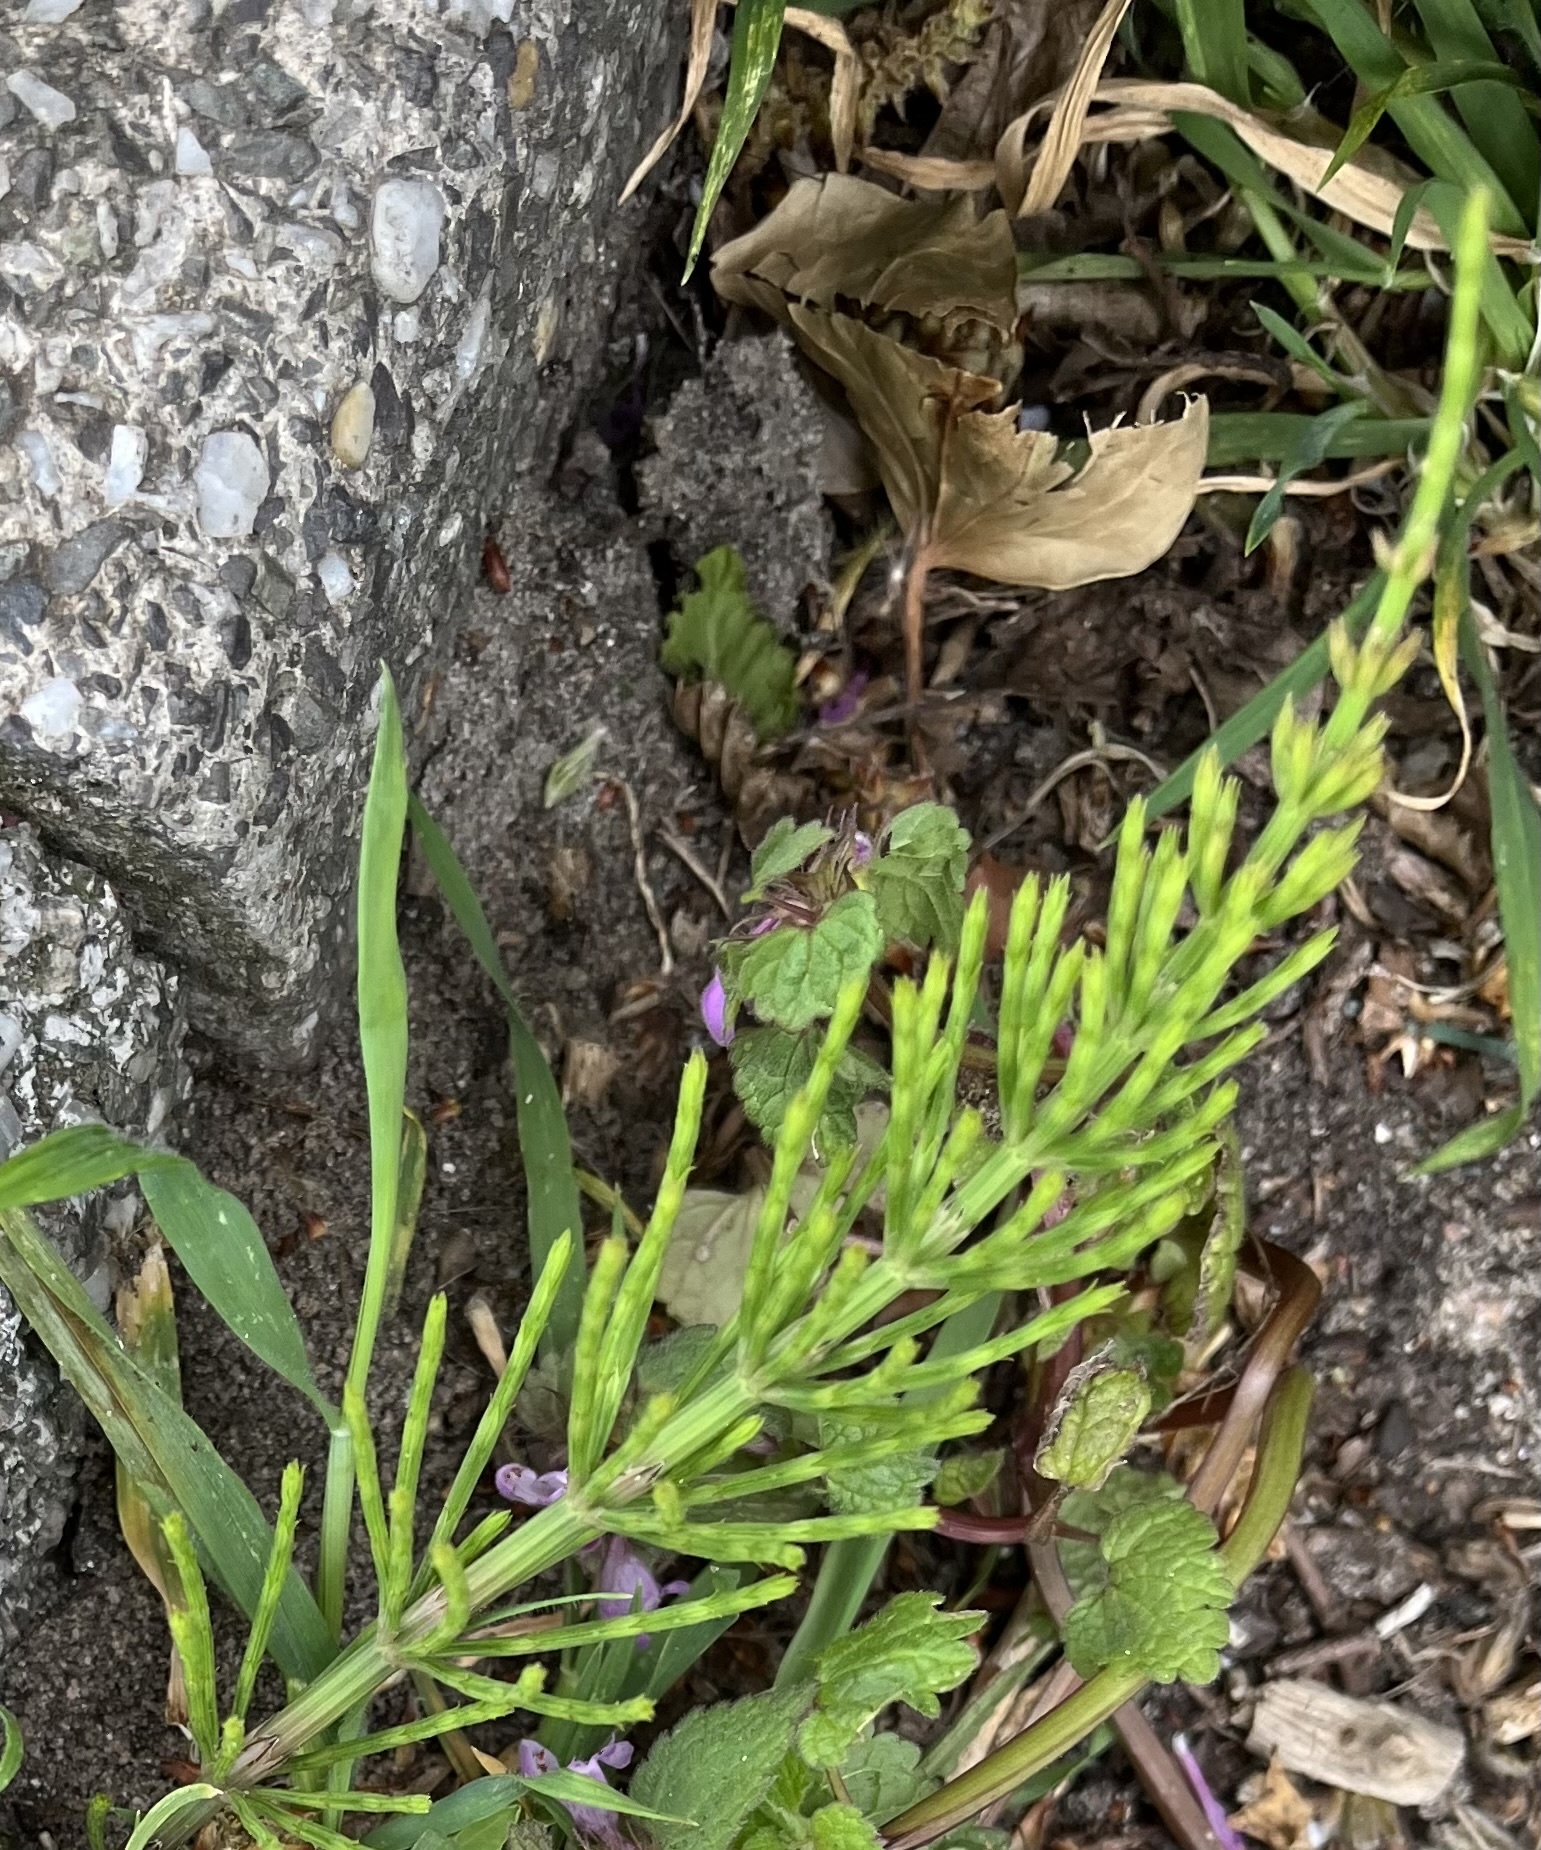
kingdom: Plantae
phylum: Tracheophyta
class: Polypodiopsida
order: Equisetales
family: Equisetaceae
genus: Equisetum
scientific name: Equisetum arvense
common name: Field horsetail
